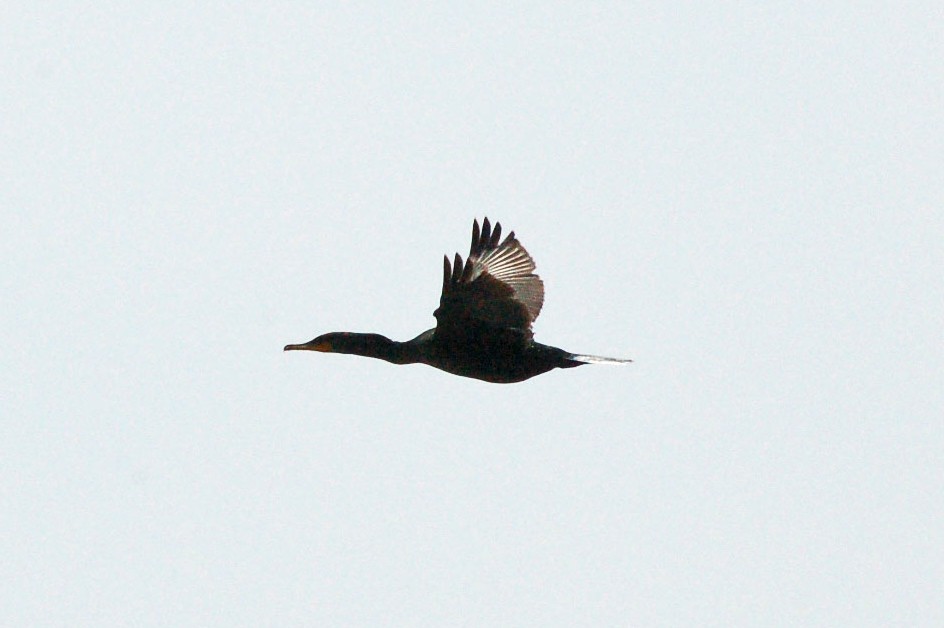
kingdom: Animalia
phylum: Chordata
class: Aves
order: Suliformes
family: Phalacrocoracidae
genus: Phalacrocorax
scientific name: Phalacrocorax auritus
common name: Double-crested cormorant
